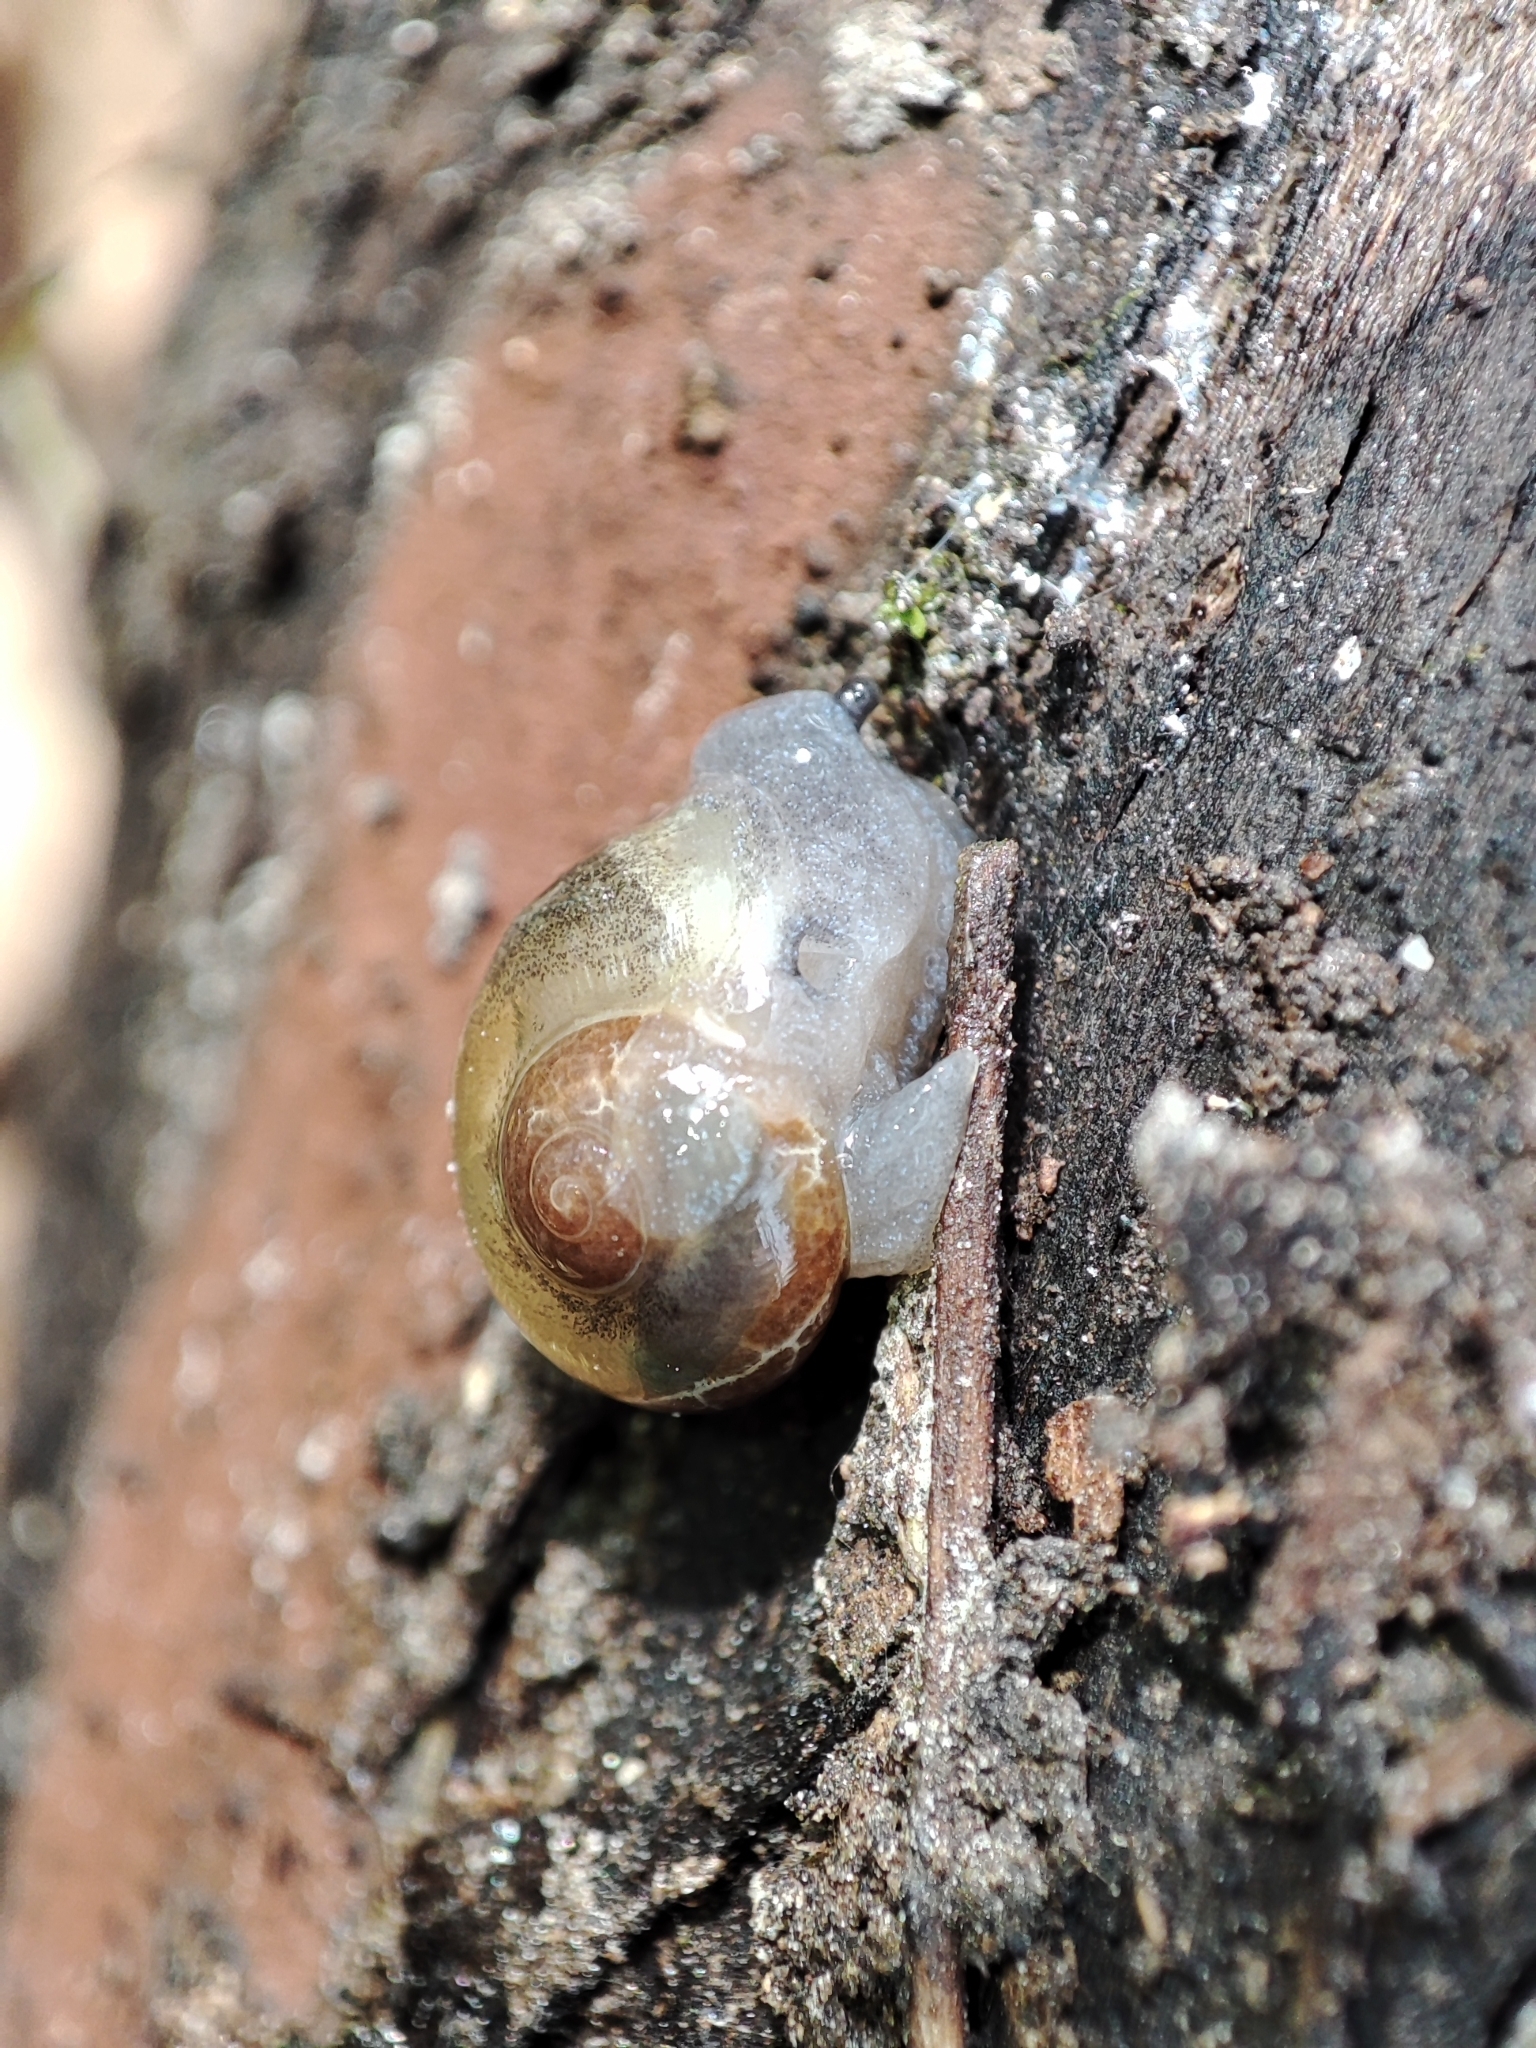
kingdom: Animalia
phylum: Mollusca
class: Gastropoda
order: Stylommatophora
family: Vitrinidae
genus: Vitrina
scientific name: Vitrina pellucida
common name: Pellucid glass snail
